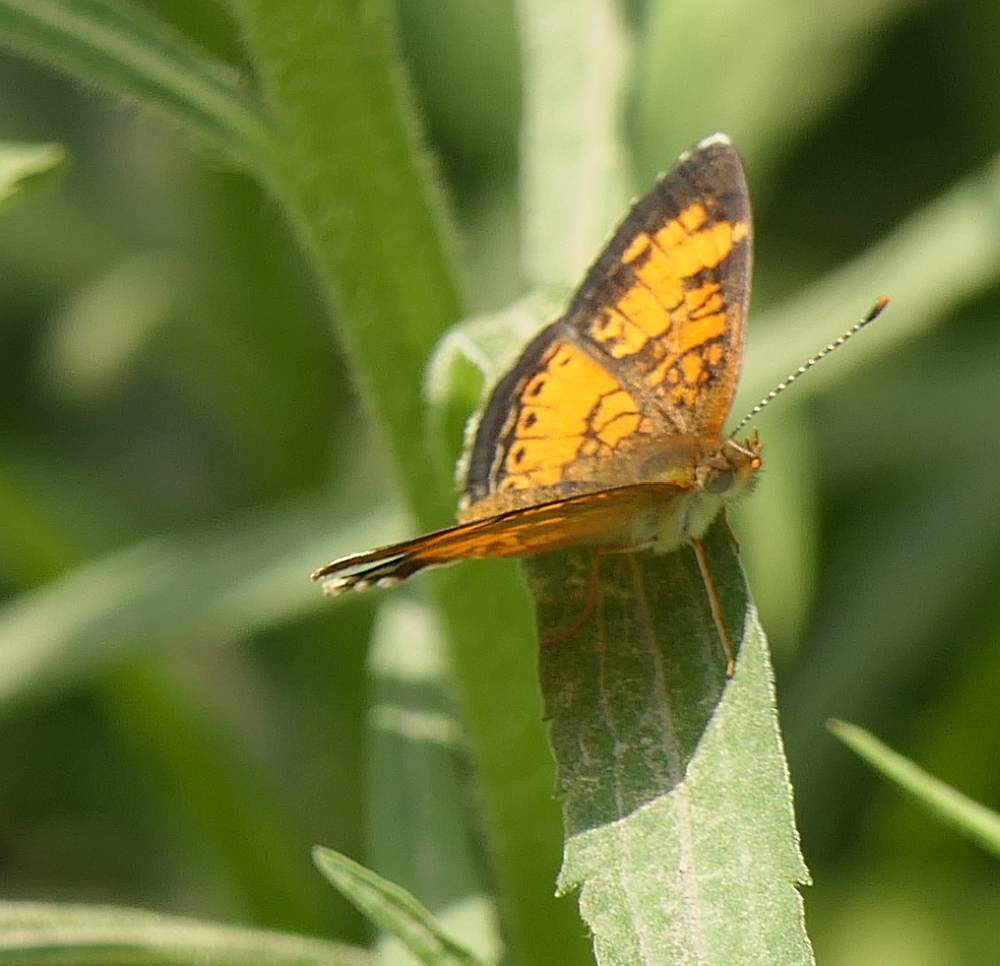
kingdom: Animalia
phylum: Arthropoda
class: Insecta
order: Lepidoptera
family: Nymphalidae
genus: Phyciodes
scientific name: Phyciodes tharos
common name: Pearl crescent
